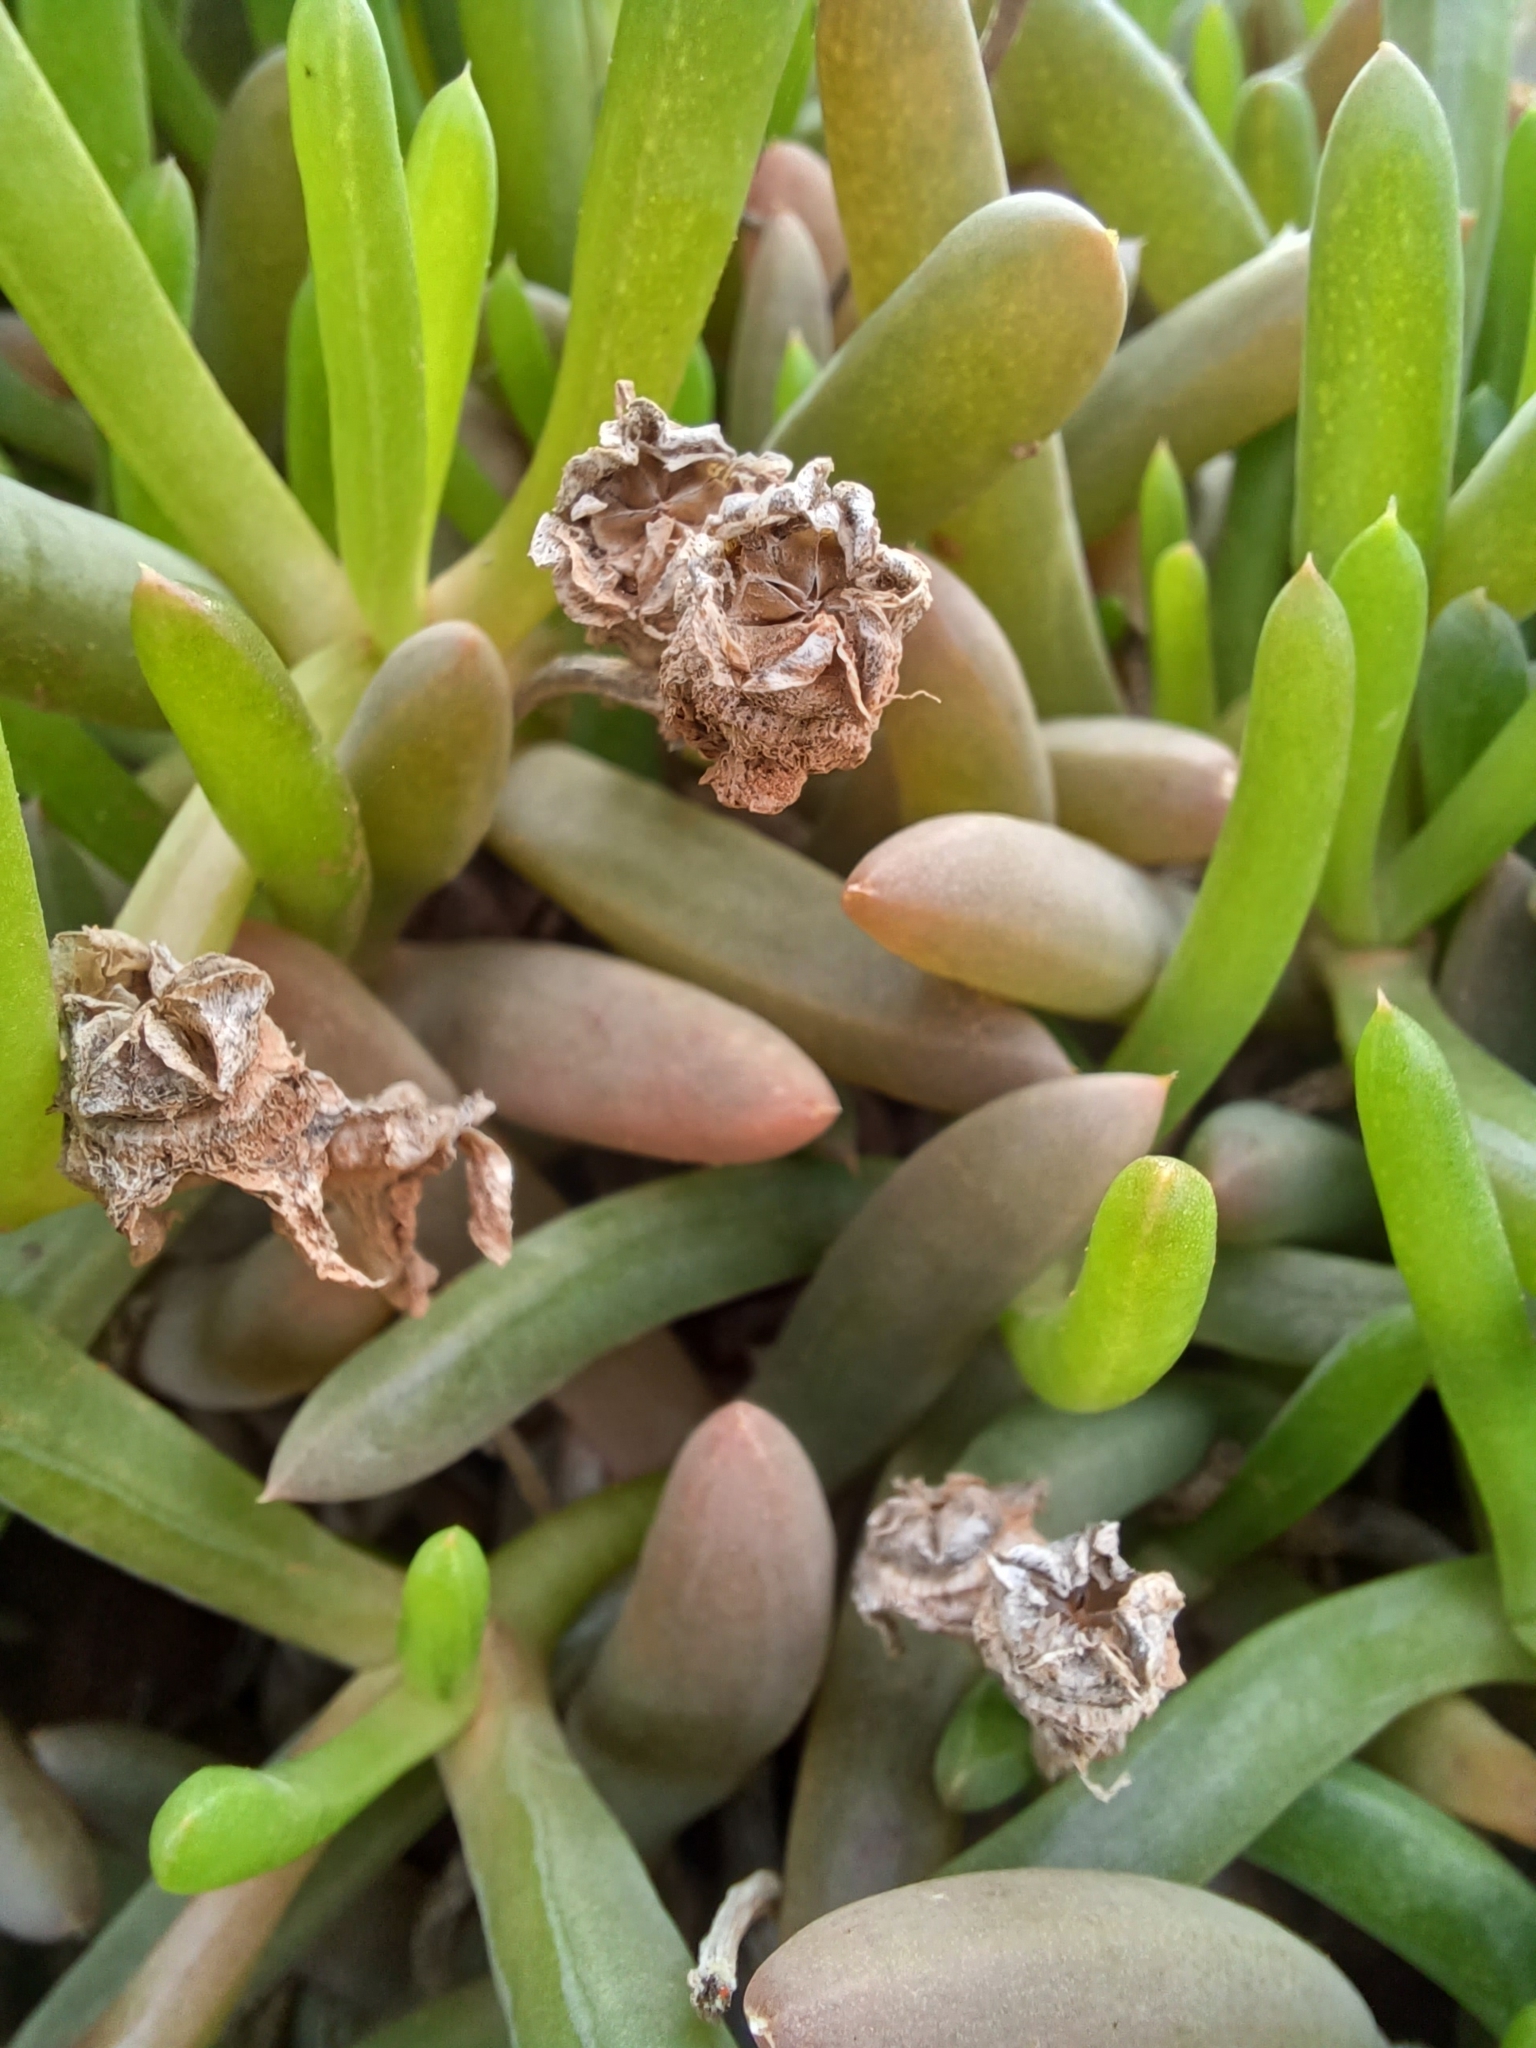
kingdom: Plantae
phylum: Tracheophyta
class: Magnoliopsida
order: Caryophyllales
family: Aizoaceae
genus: Disphyma
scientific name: Disphyma crassifolium
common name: Purple dewplant
